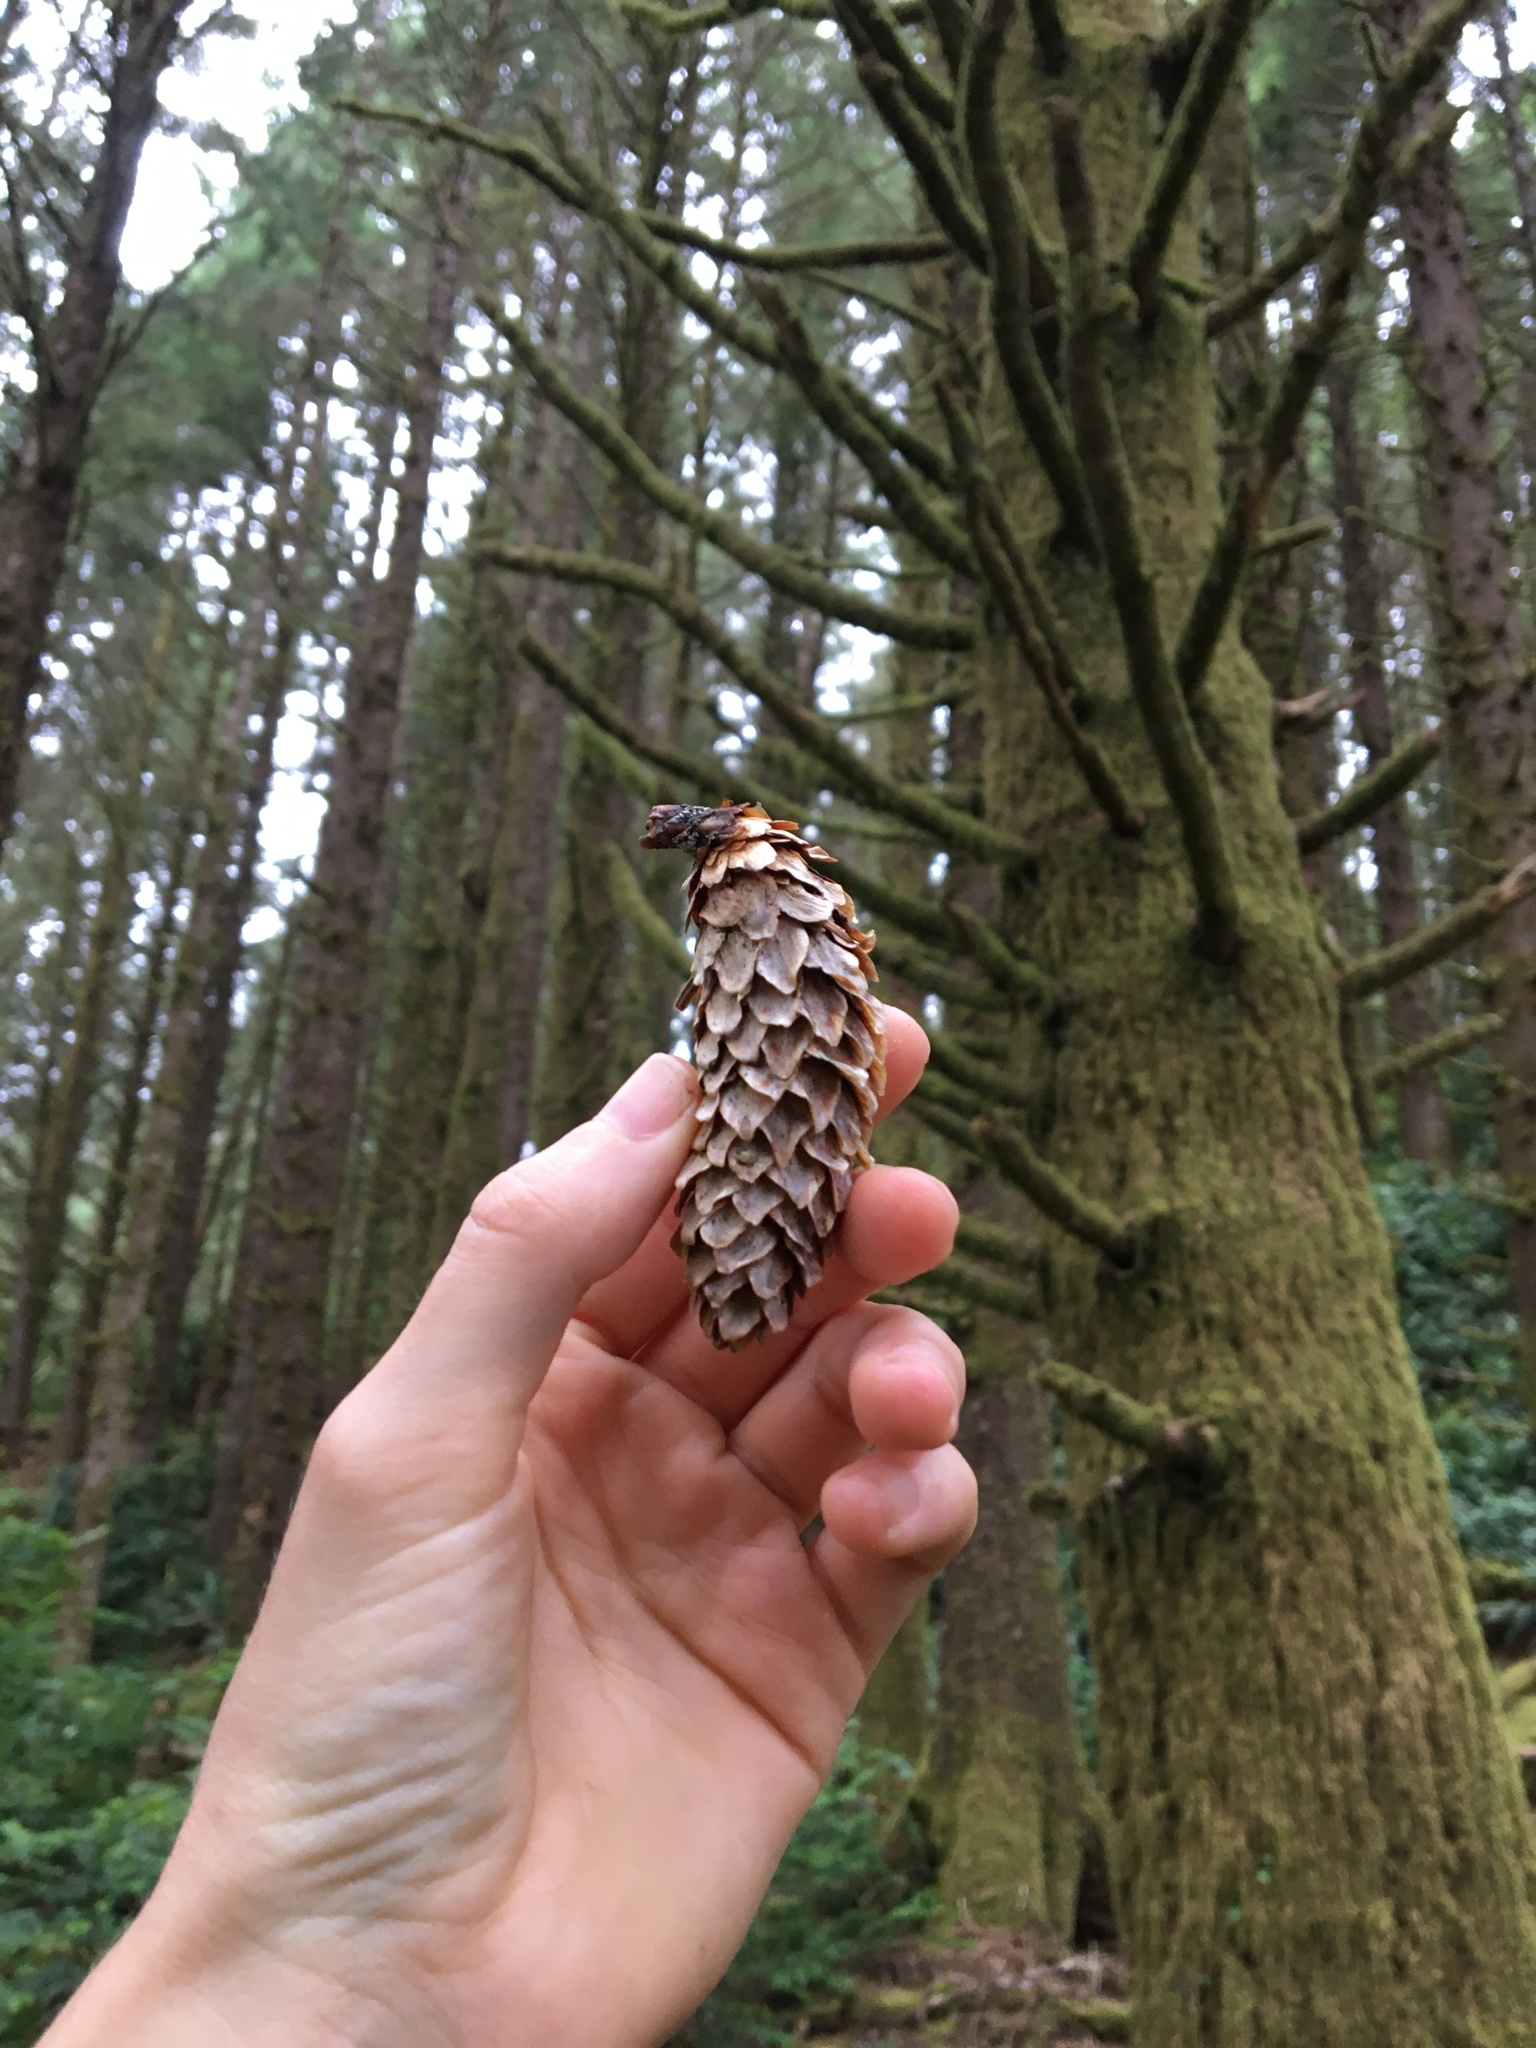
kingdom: Plantae
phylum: Tracheophyta
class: Pinopsida
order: Pinales
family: Pinaceae
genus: Picea
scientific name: Picea sitchensis
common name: Sitka spruce
